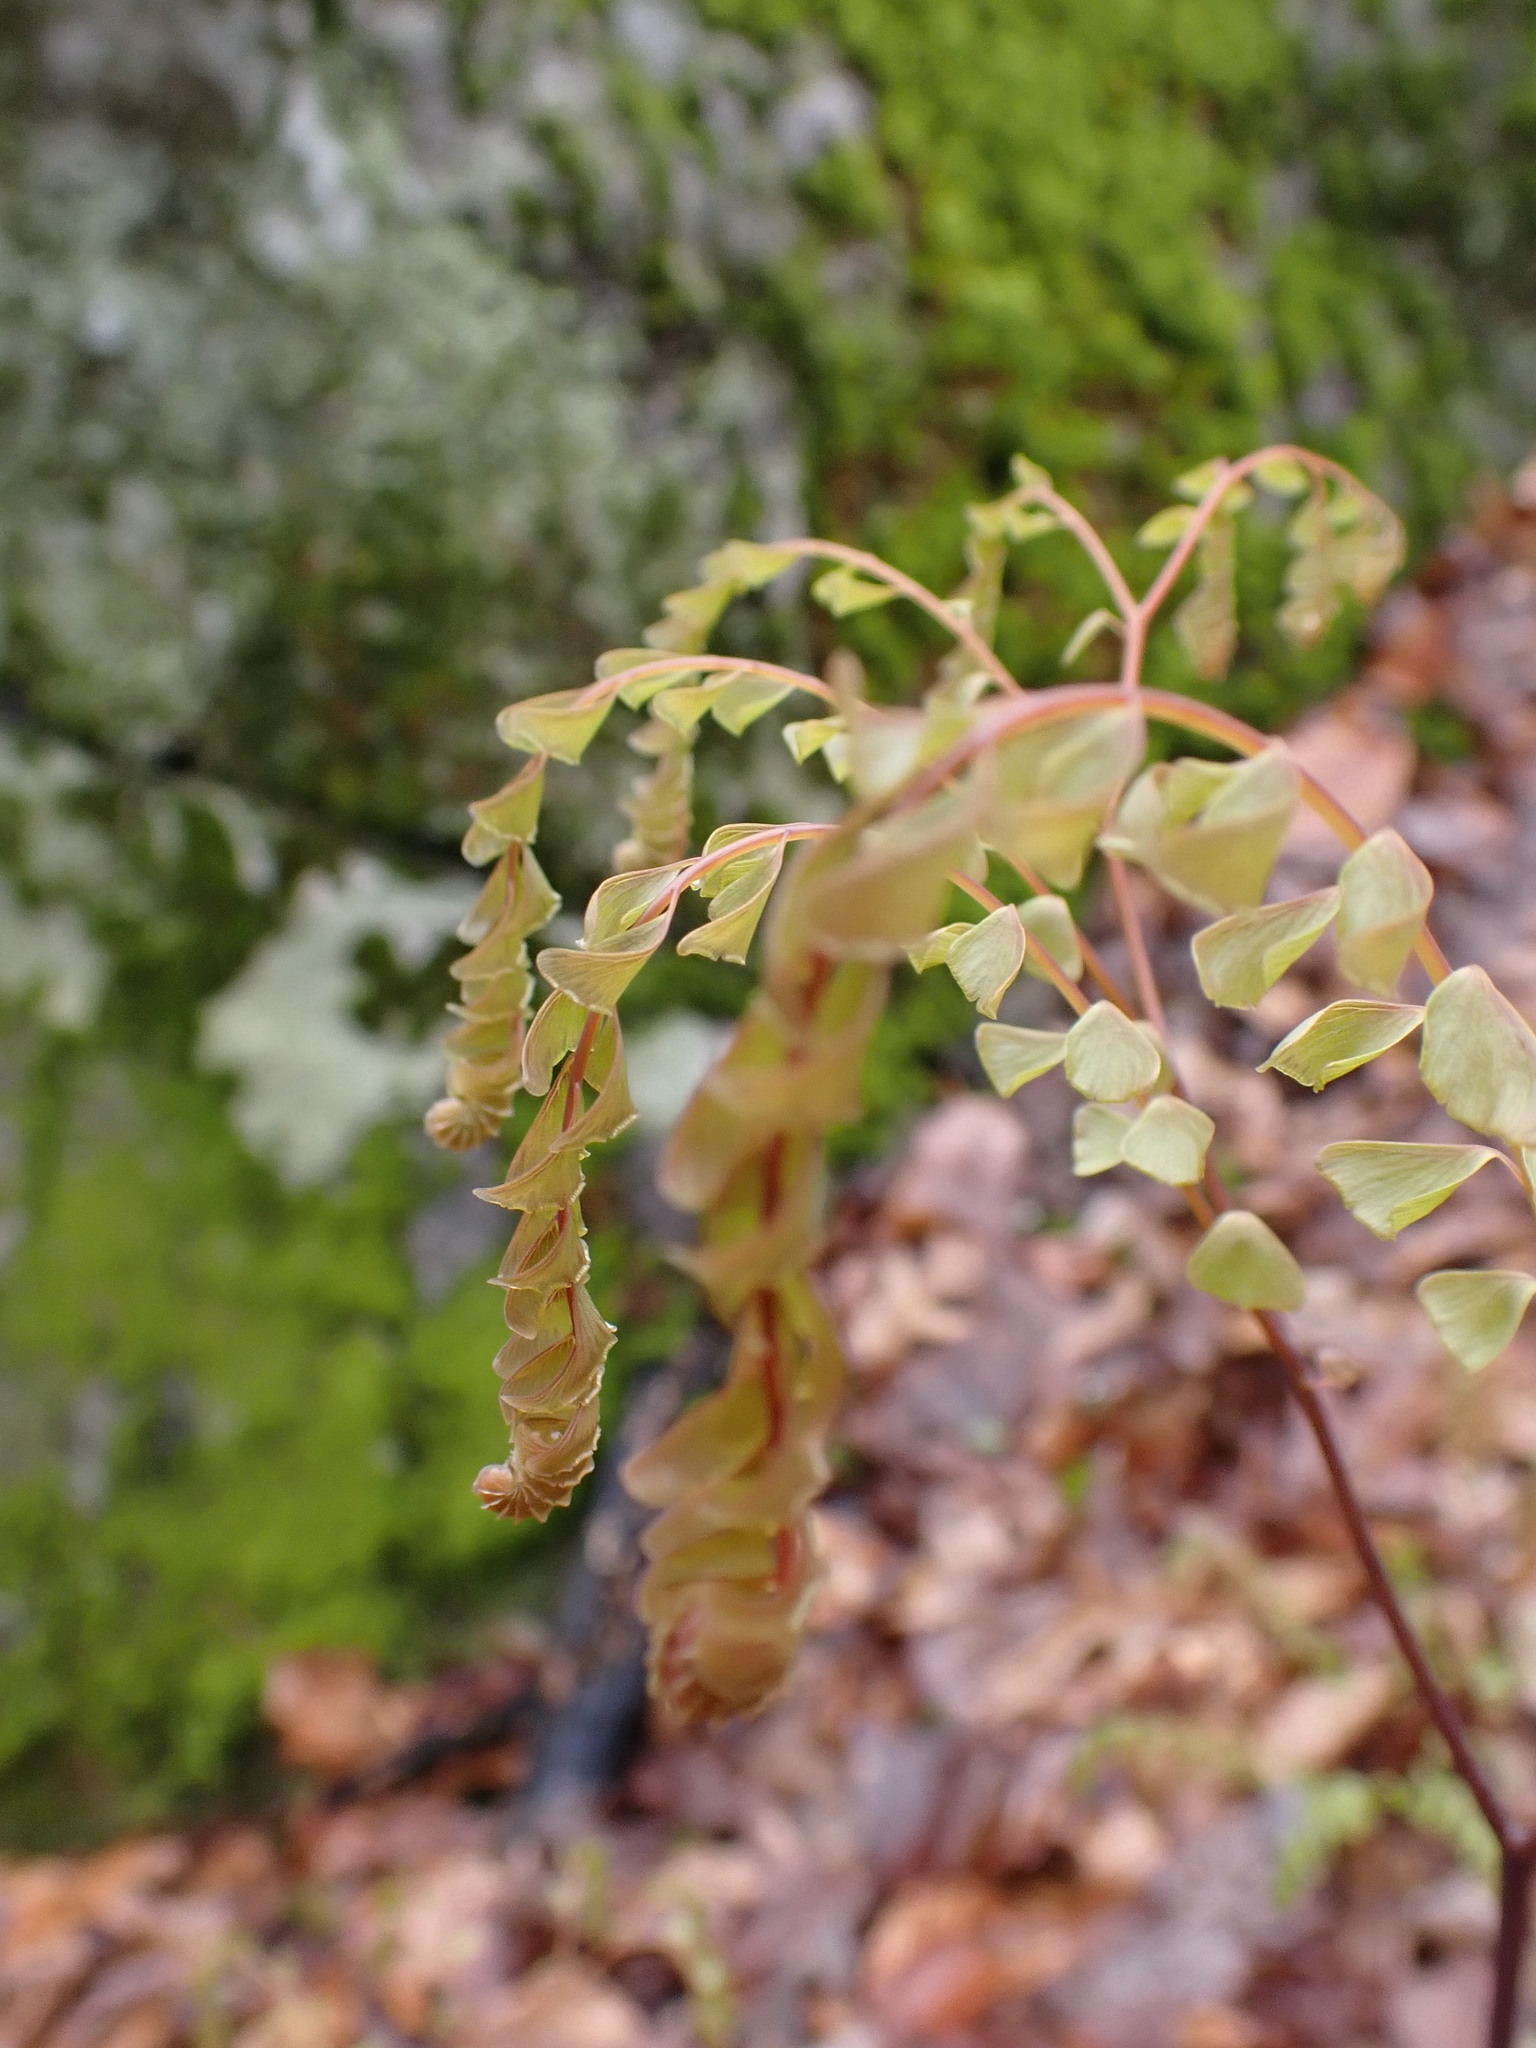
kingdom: Plantae
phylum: Tracheophyta
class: Polypodiopsida
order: Polypodiales
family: Pteridaceae
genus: Adiantum
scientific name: Adiantum pedatum
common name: Five-finger fern
